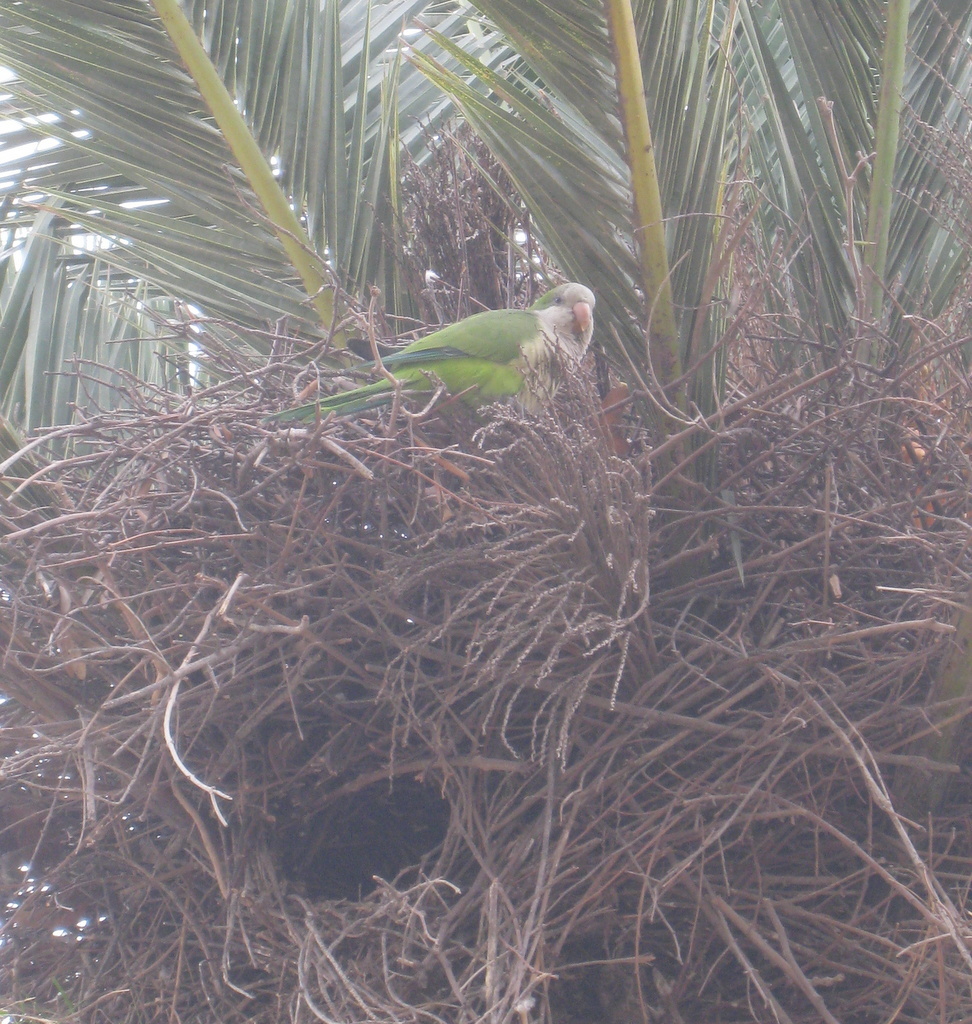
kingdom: Animalia
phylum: Chordata
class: Aves
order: Psittaciformes
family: Psittacidae
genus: Myiopsitta
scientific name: Myiopsitta monachus
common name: Monk parakeet
